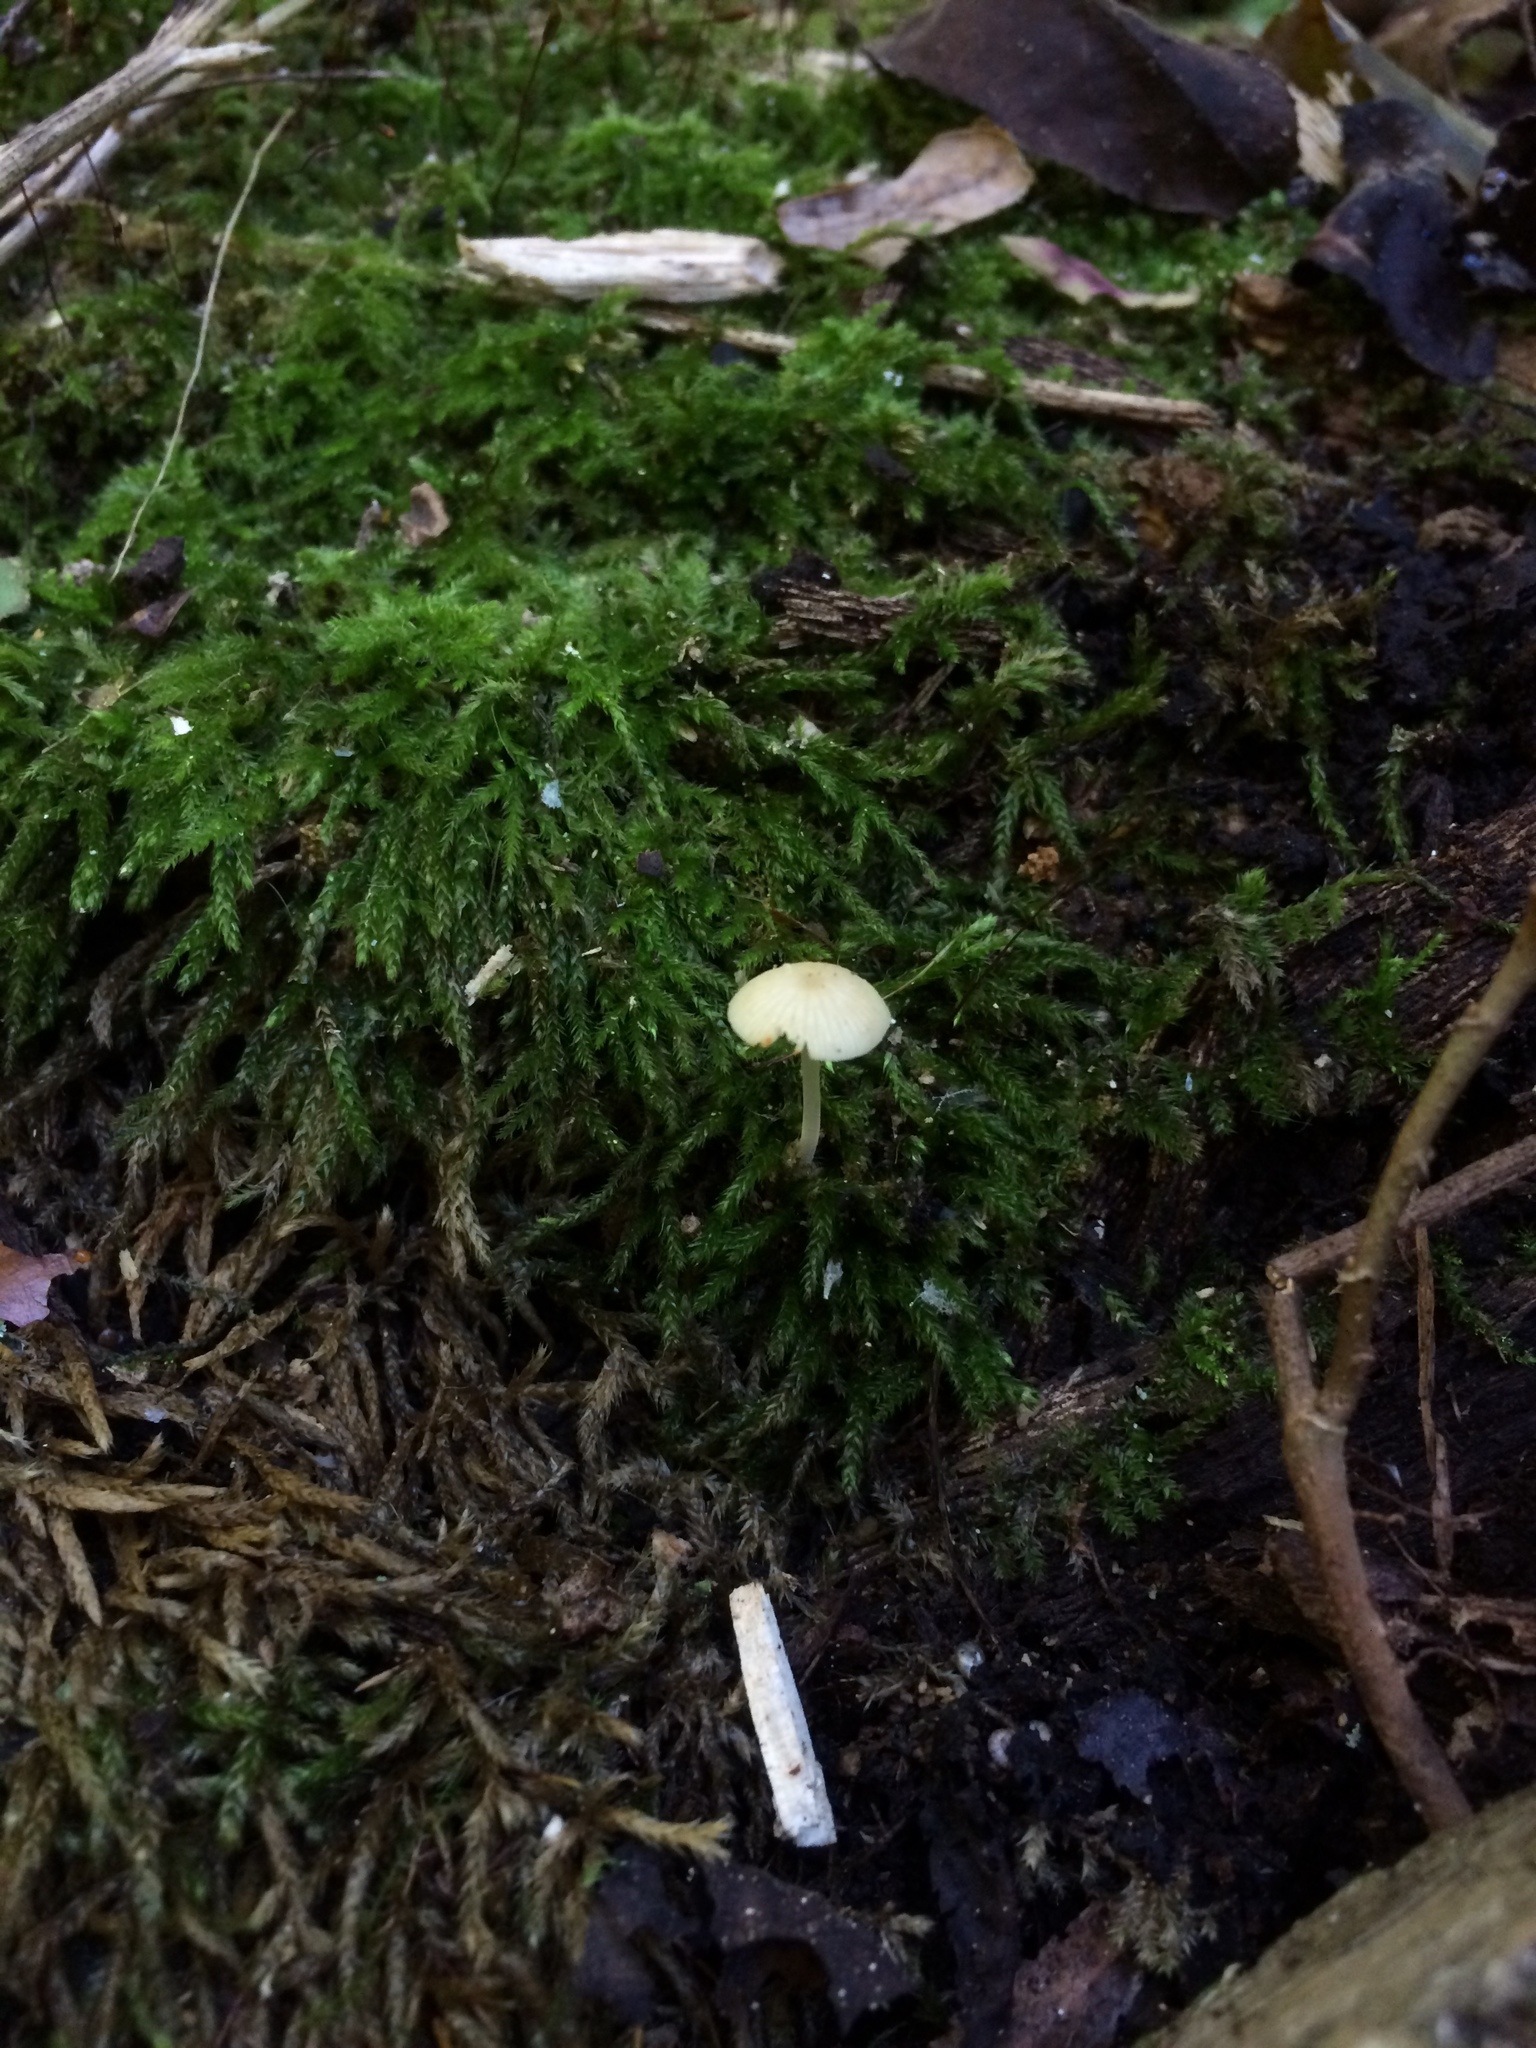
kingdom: Fungi
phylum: Basidiomycota
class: Agaricomycetes
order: Agaricales
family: Porotheleaceae
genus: Phloeomana
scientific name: Phloeomana minutula
